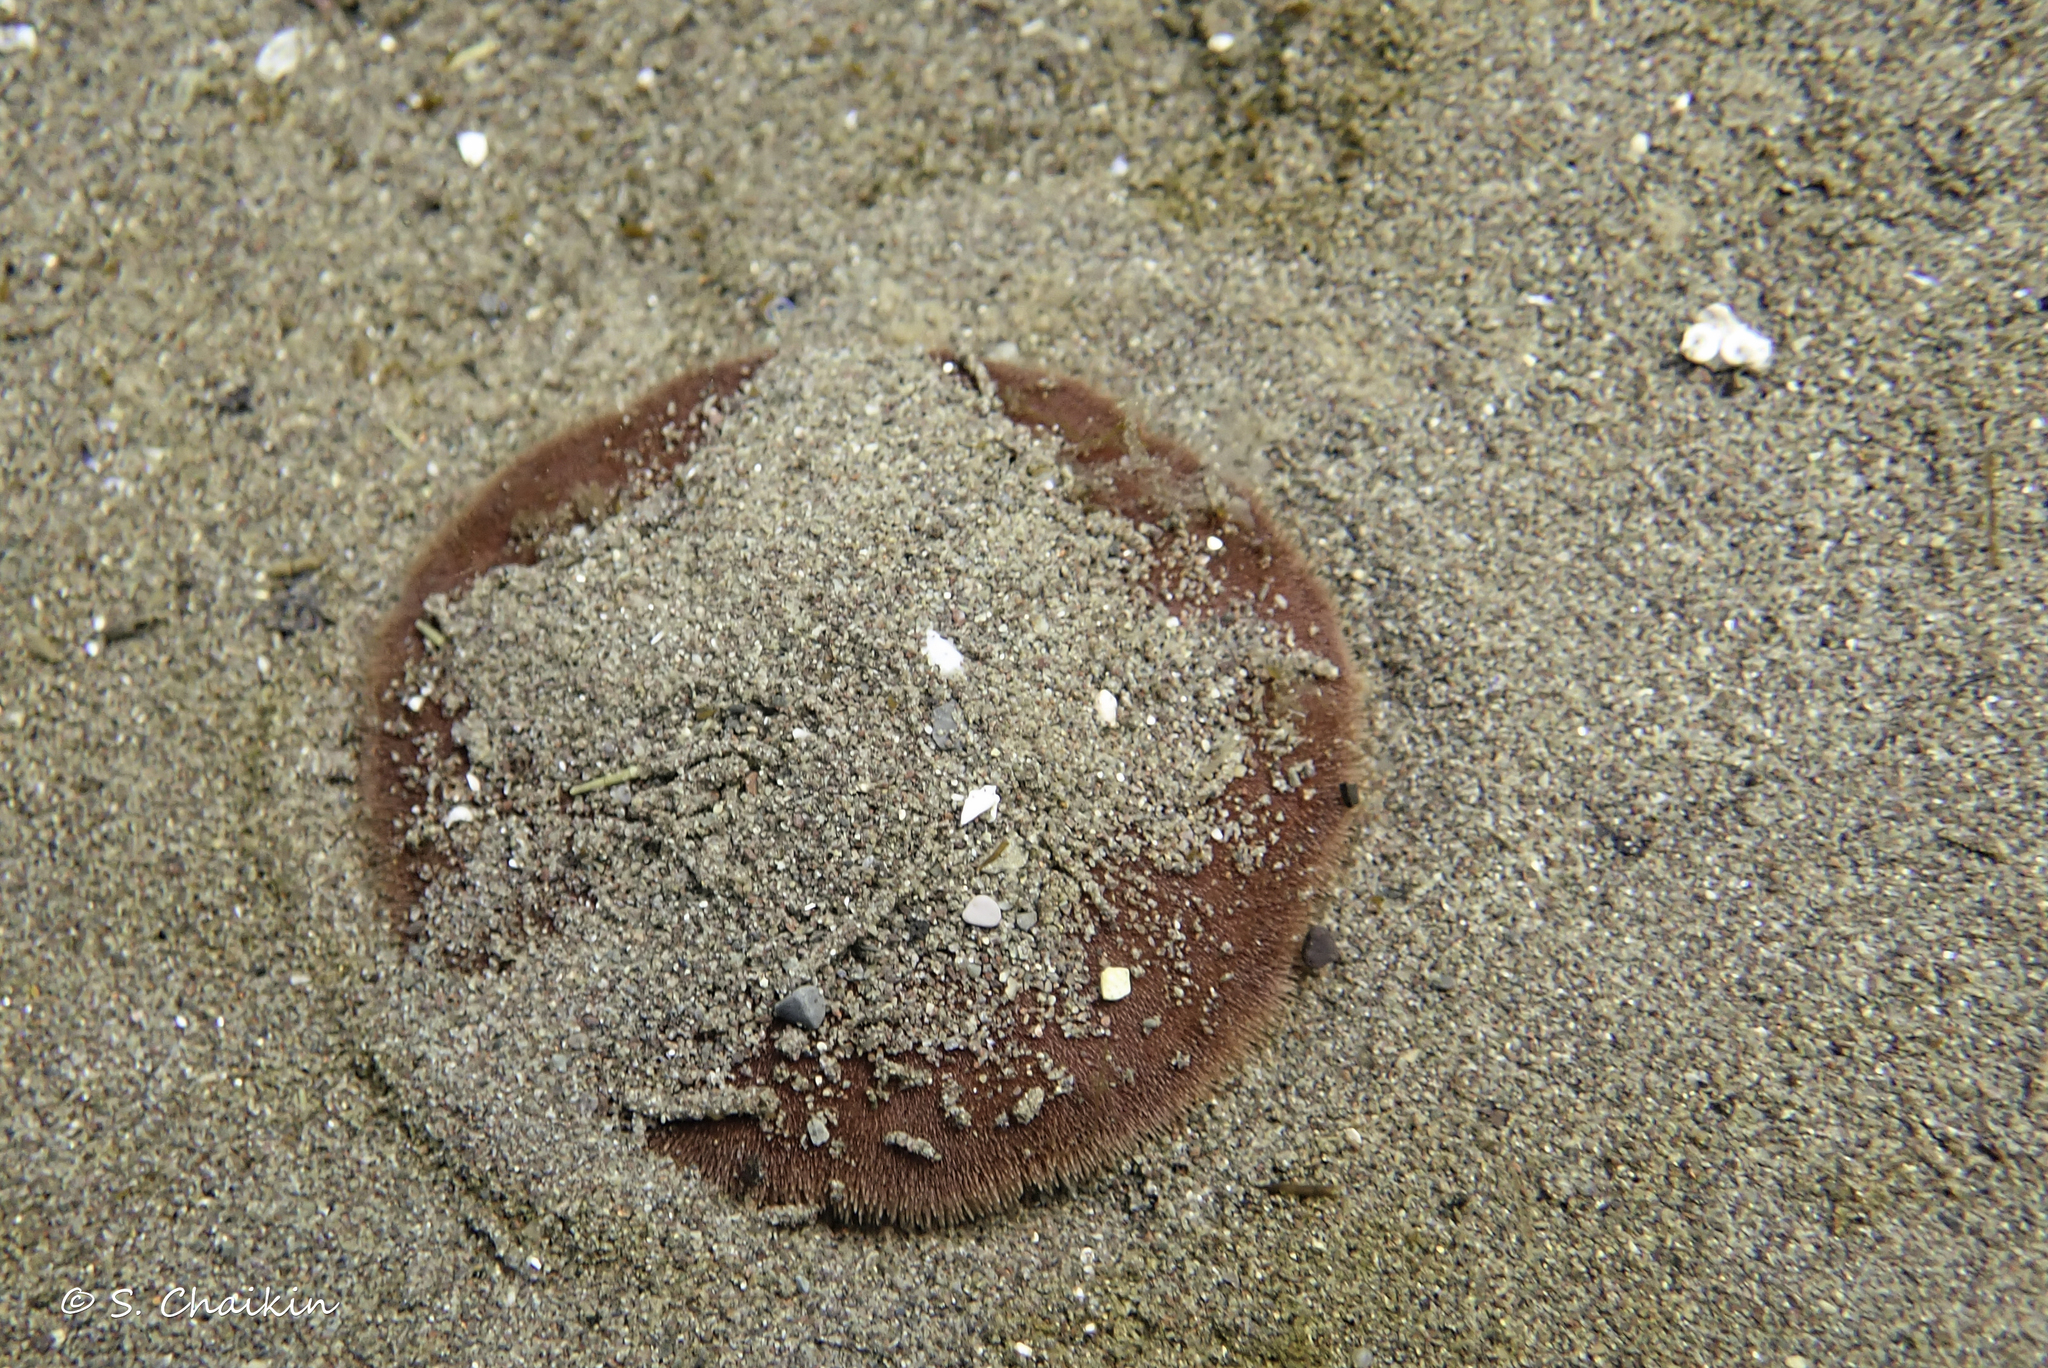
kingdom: Animalia
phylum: Echinodermata
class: Echinoidea
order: Echinolampadacea
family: Echinarachniidae
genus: Echinarachnius
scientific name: Echinarachnius parma
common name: Common sand dollar
